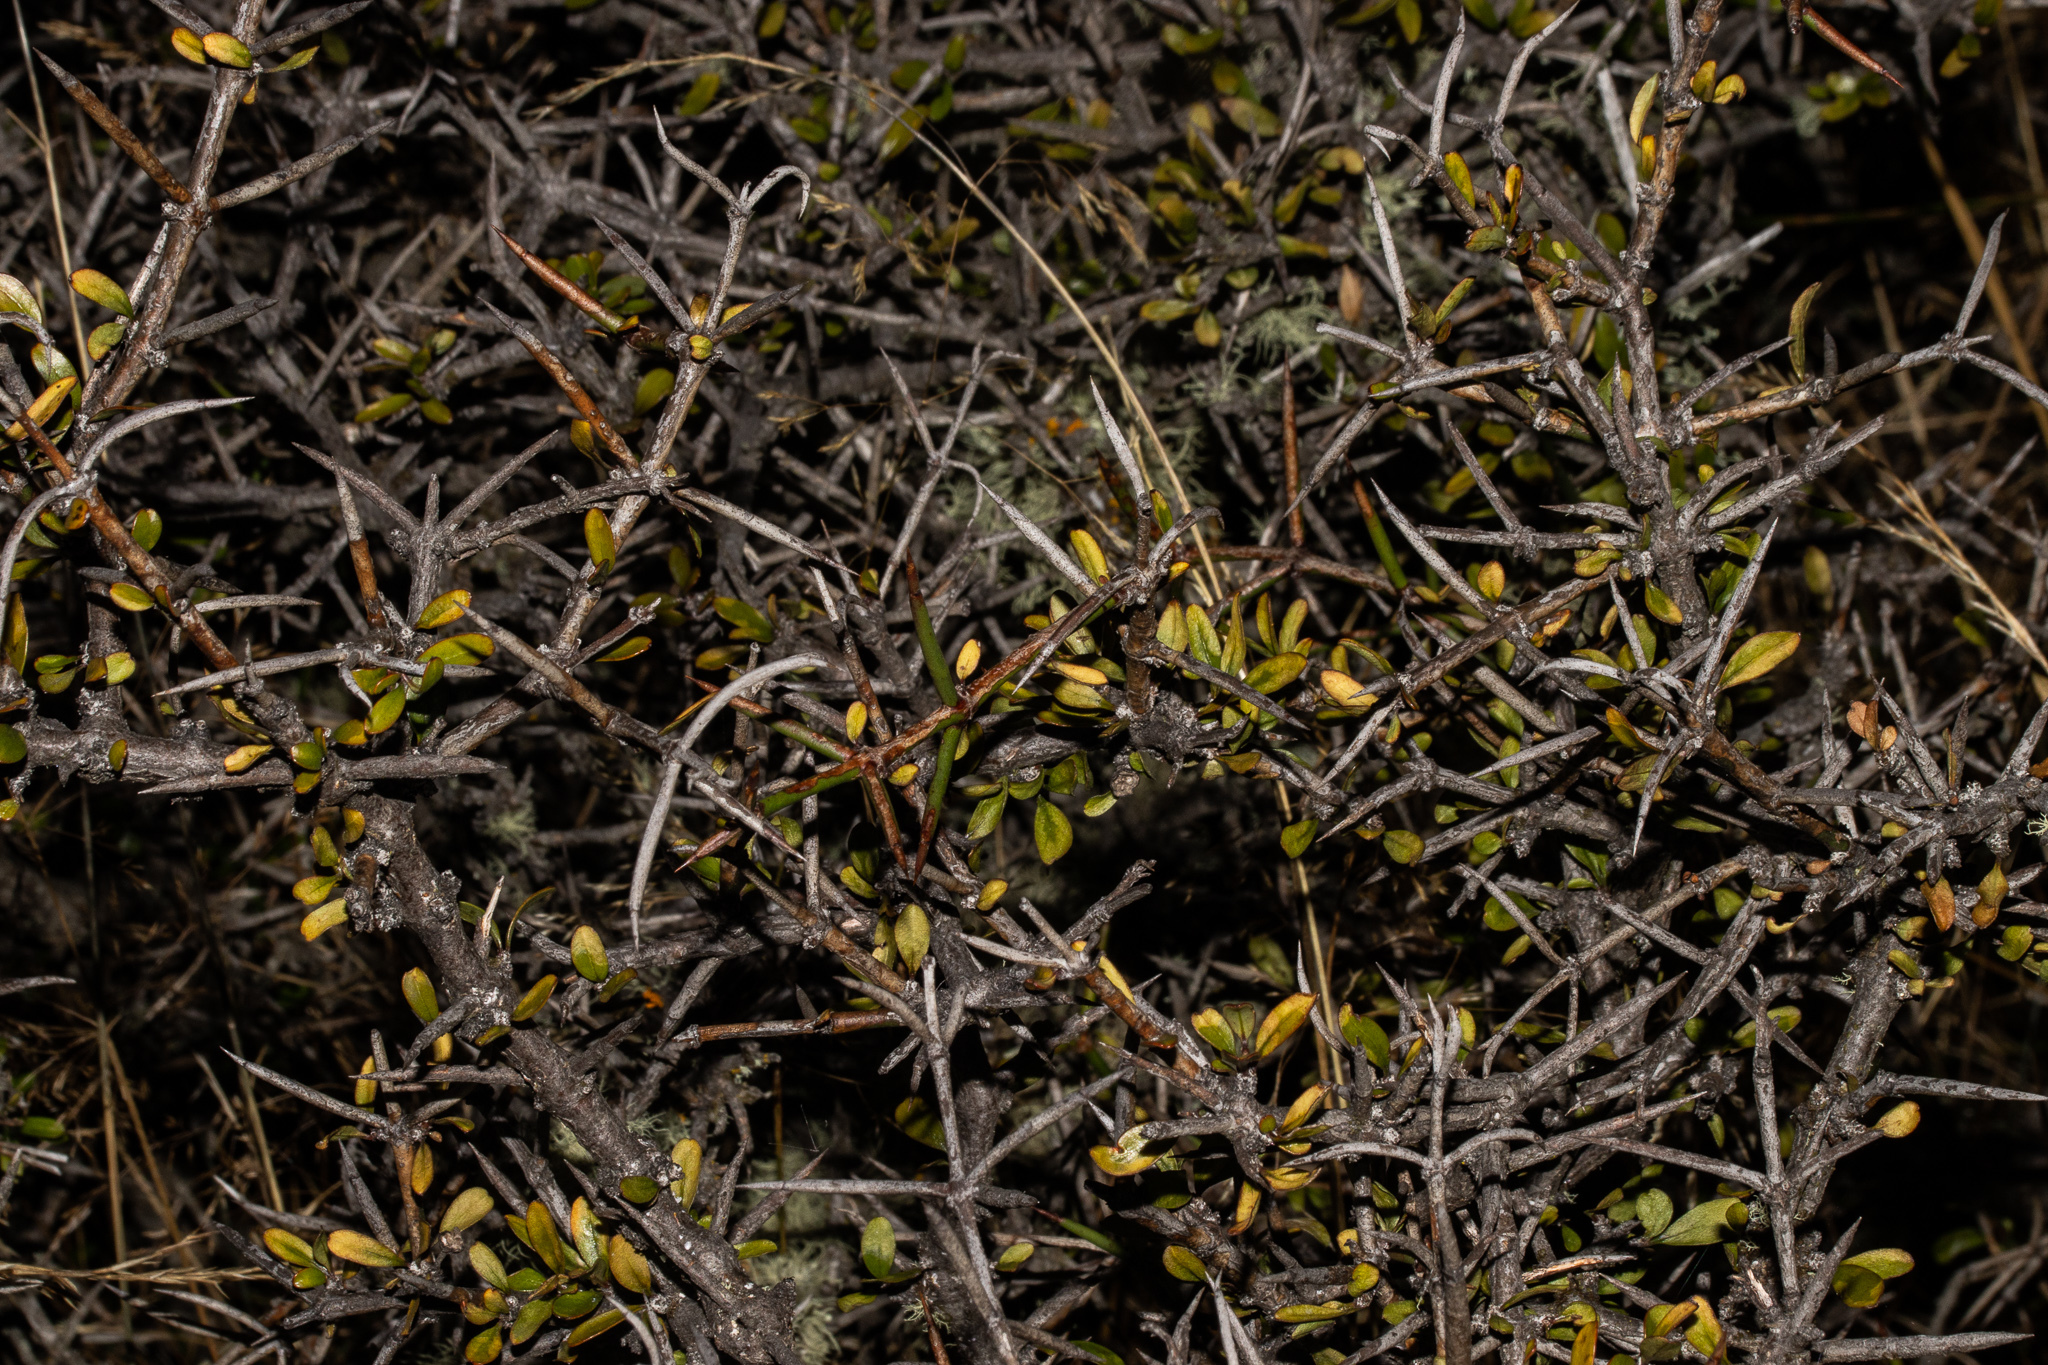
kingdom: Plantae
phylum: Tracheophyta
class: Magnoliopsida
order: Rosales
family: Rhamnaceae
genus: Discaria
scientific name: Discaria toumatou
